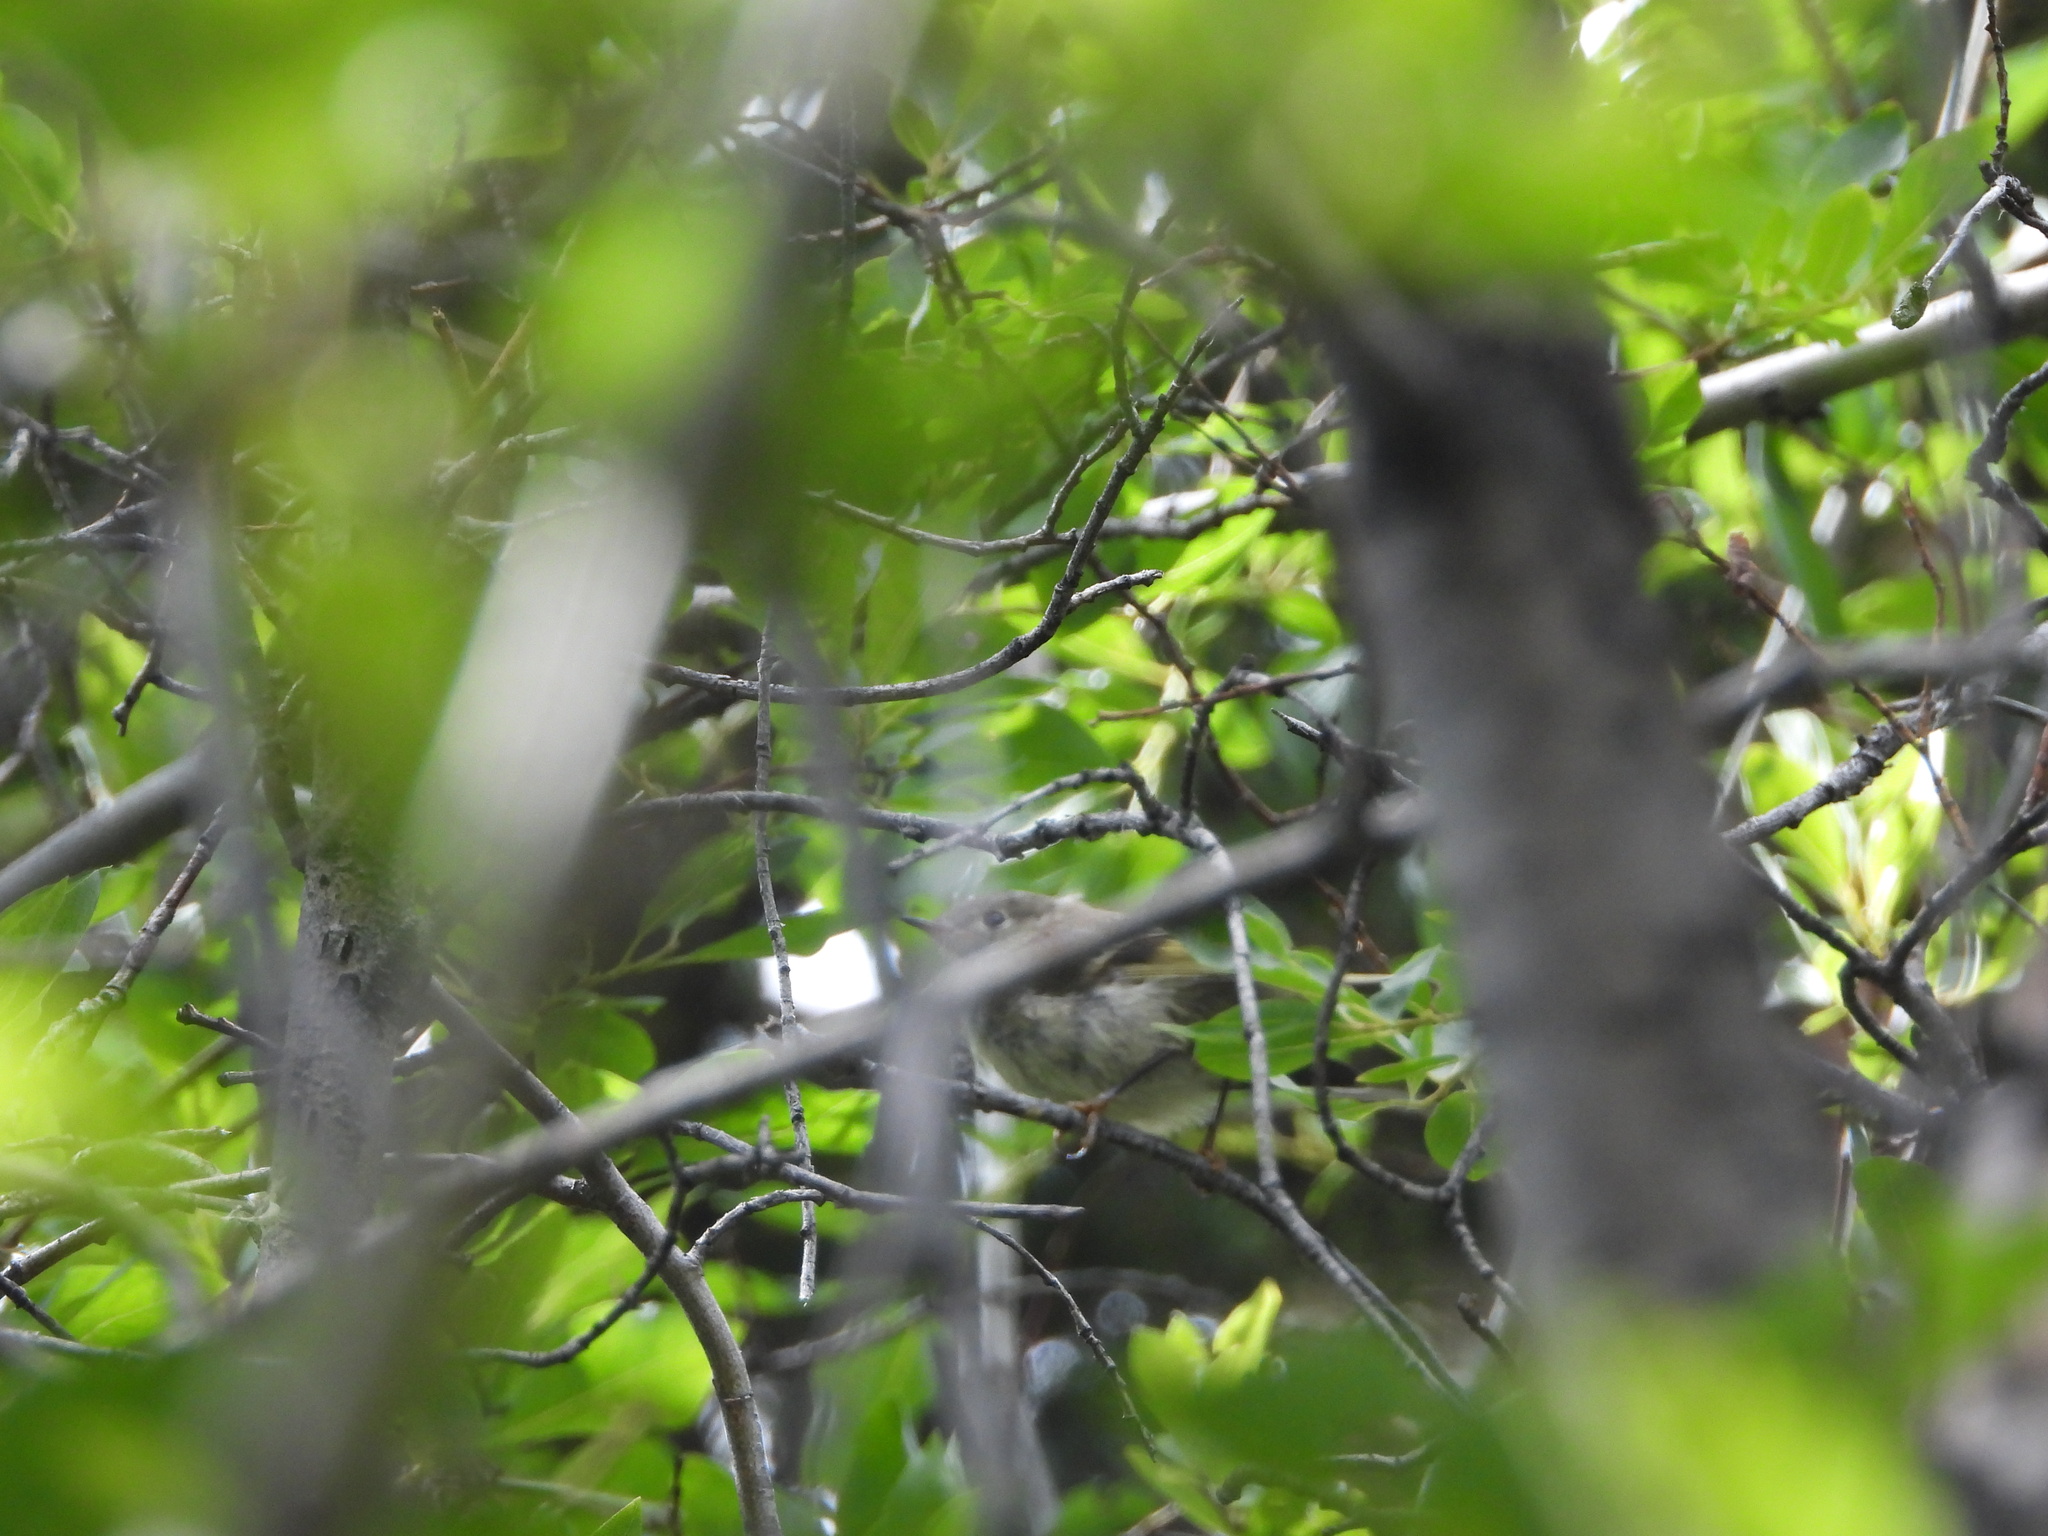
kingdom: Animalia
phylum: Chordata
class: Aves
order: Passeriformes
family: Regulidae
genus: Regulus
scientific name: Regulus calendula
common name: Ruby-crowned kinglet
